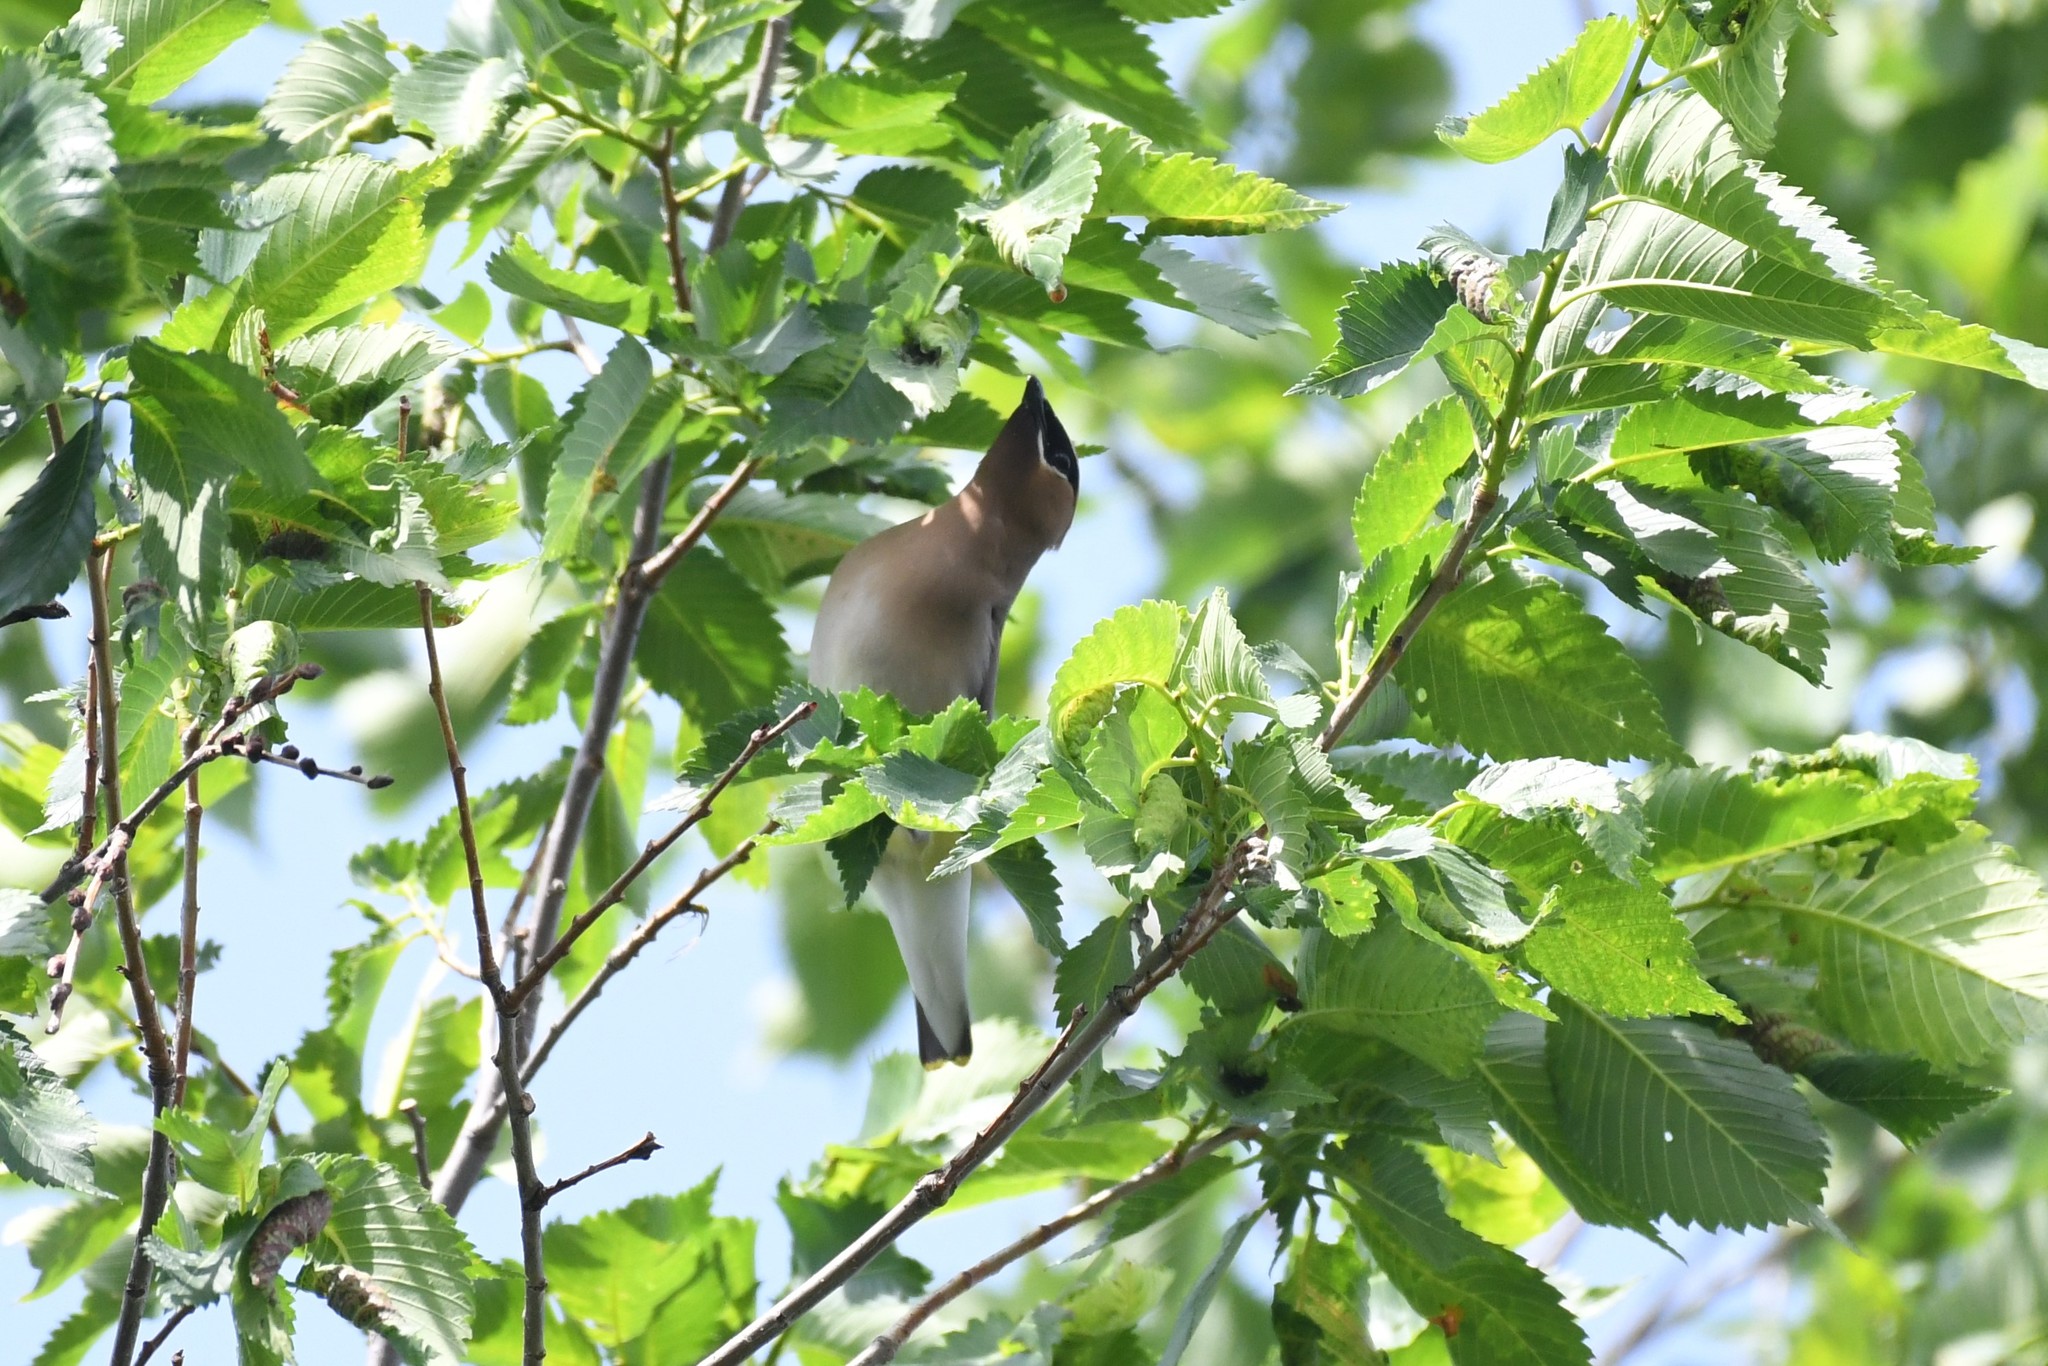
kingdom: Animalia
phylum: Chordata
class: Aves
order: Passeriformes
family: Bombycillidae
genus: Bombycilla
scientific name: Bombycilla cedrorum
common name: Cedar waxwing
